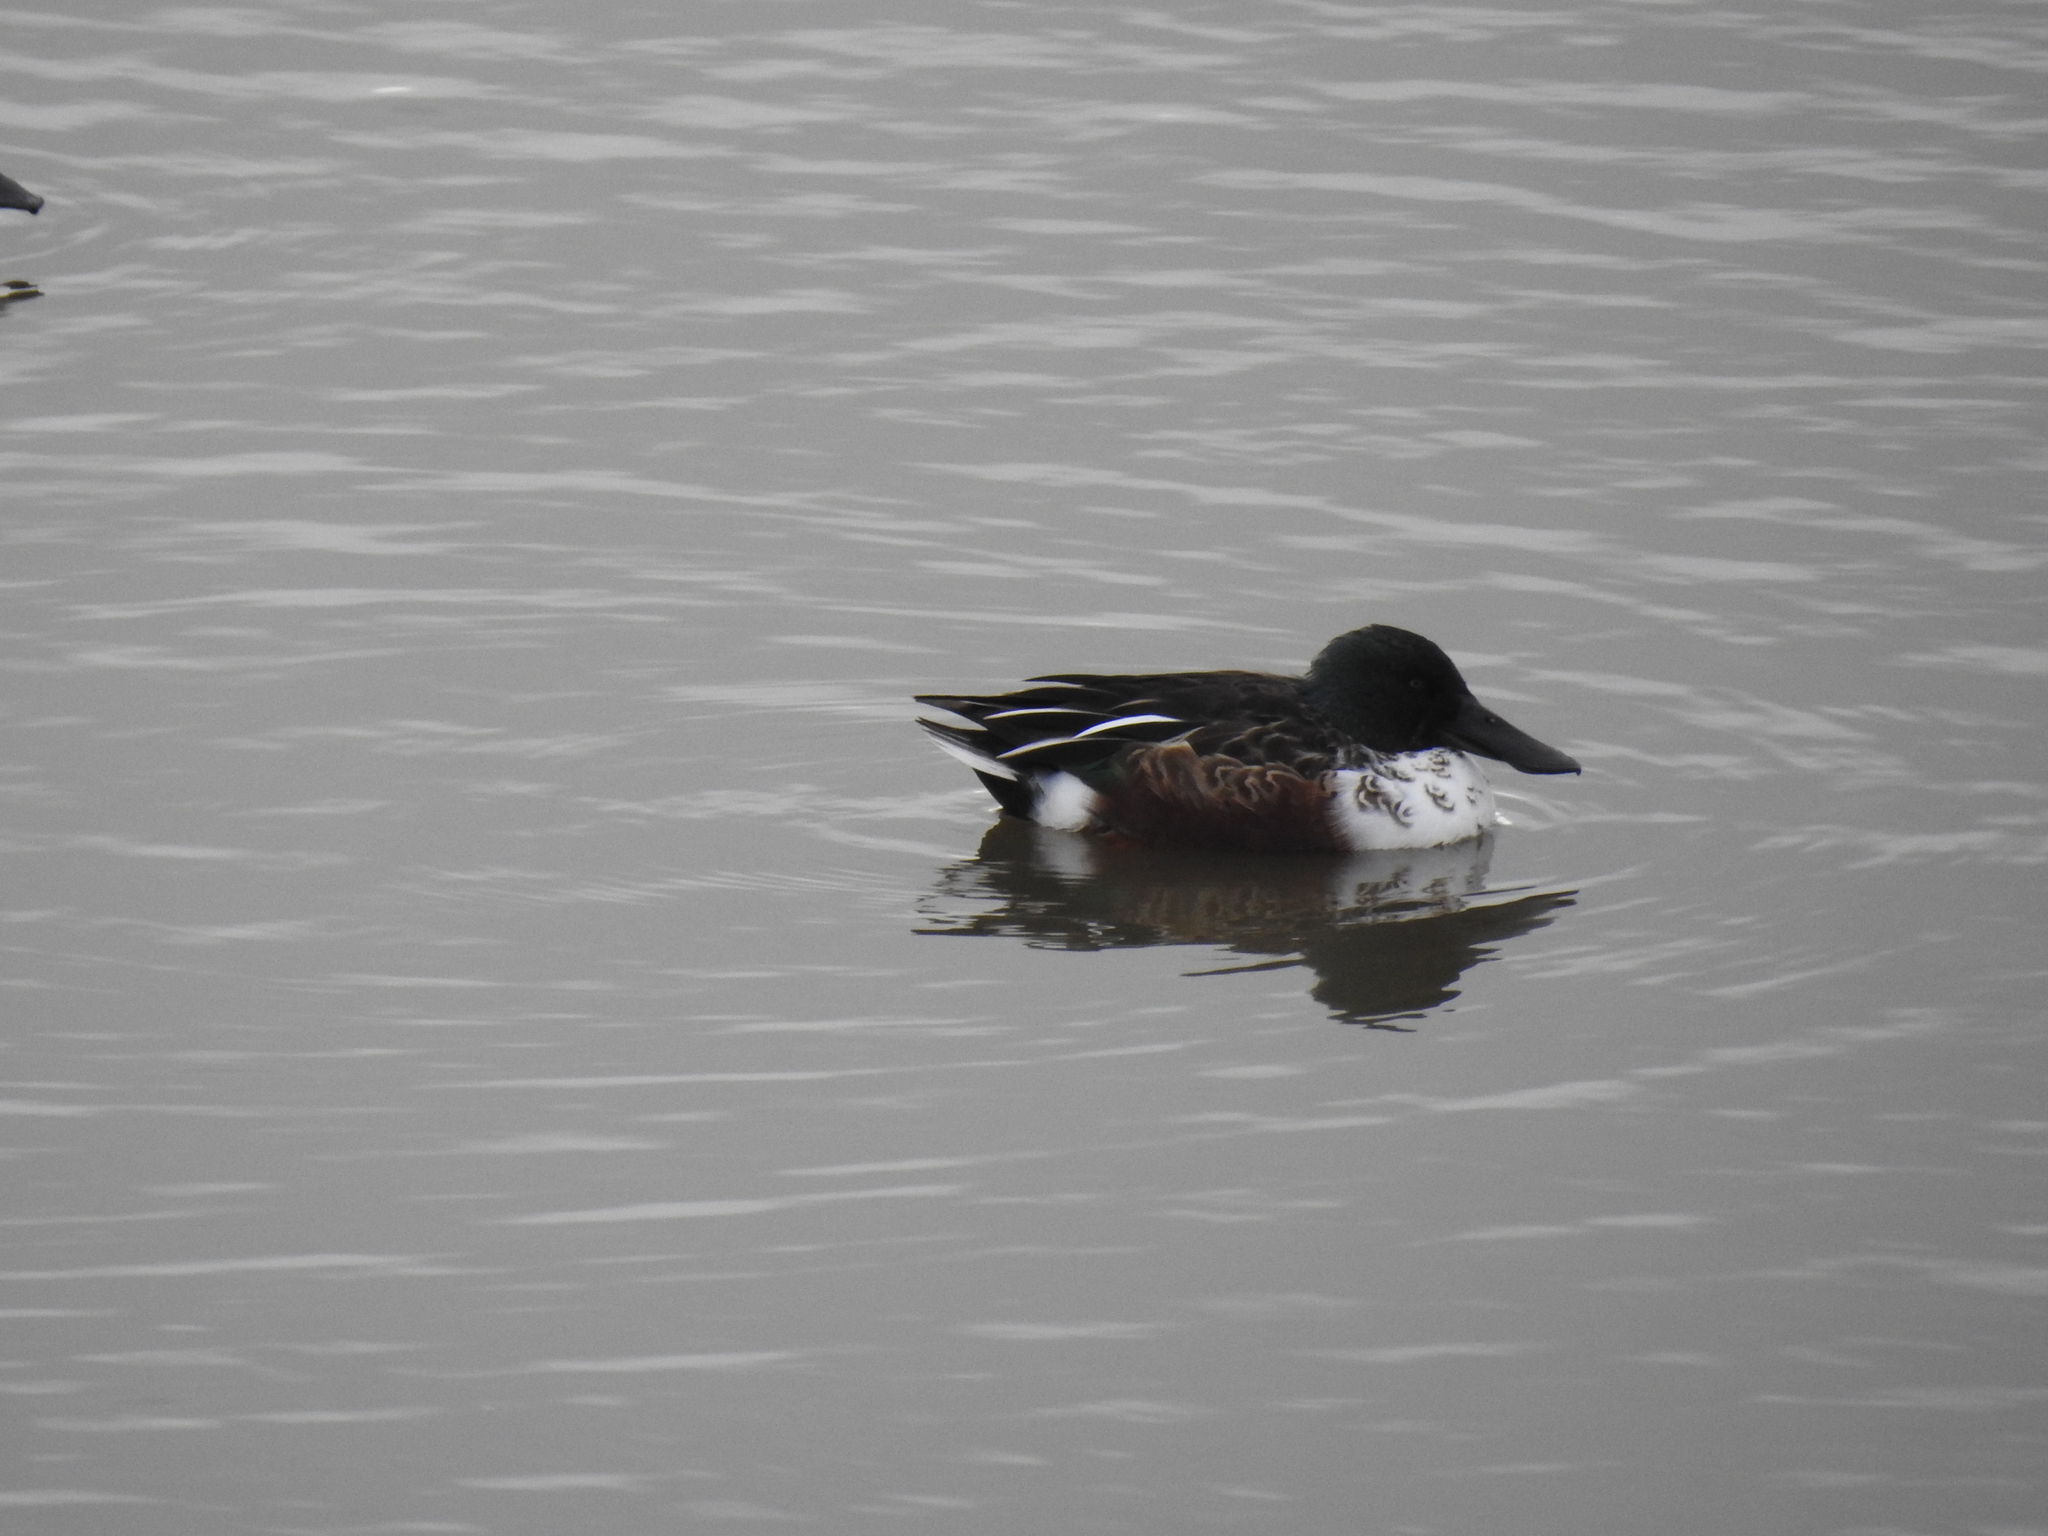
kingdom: Animalia
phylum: Chordata
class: Aves
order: Anseriformes
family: Anatidae
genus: Spatula
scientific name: Spatula clypeata
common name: Northern shoveler
